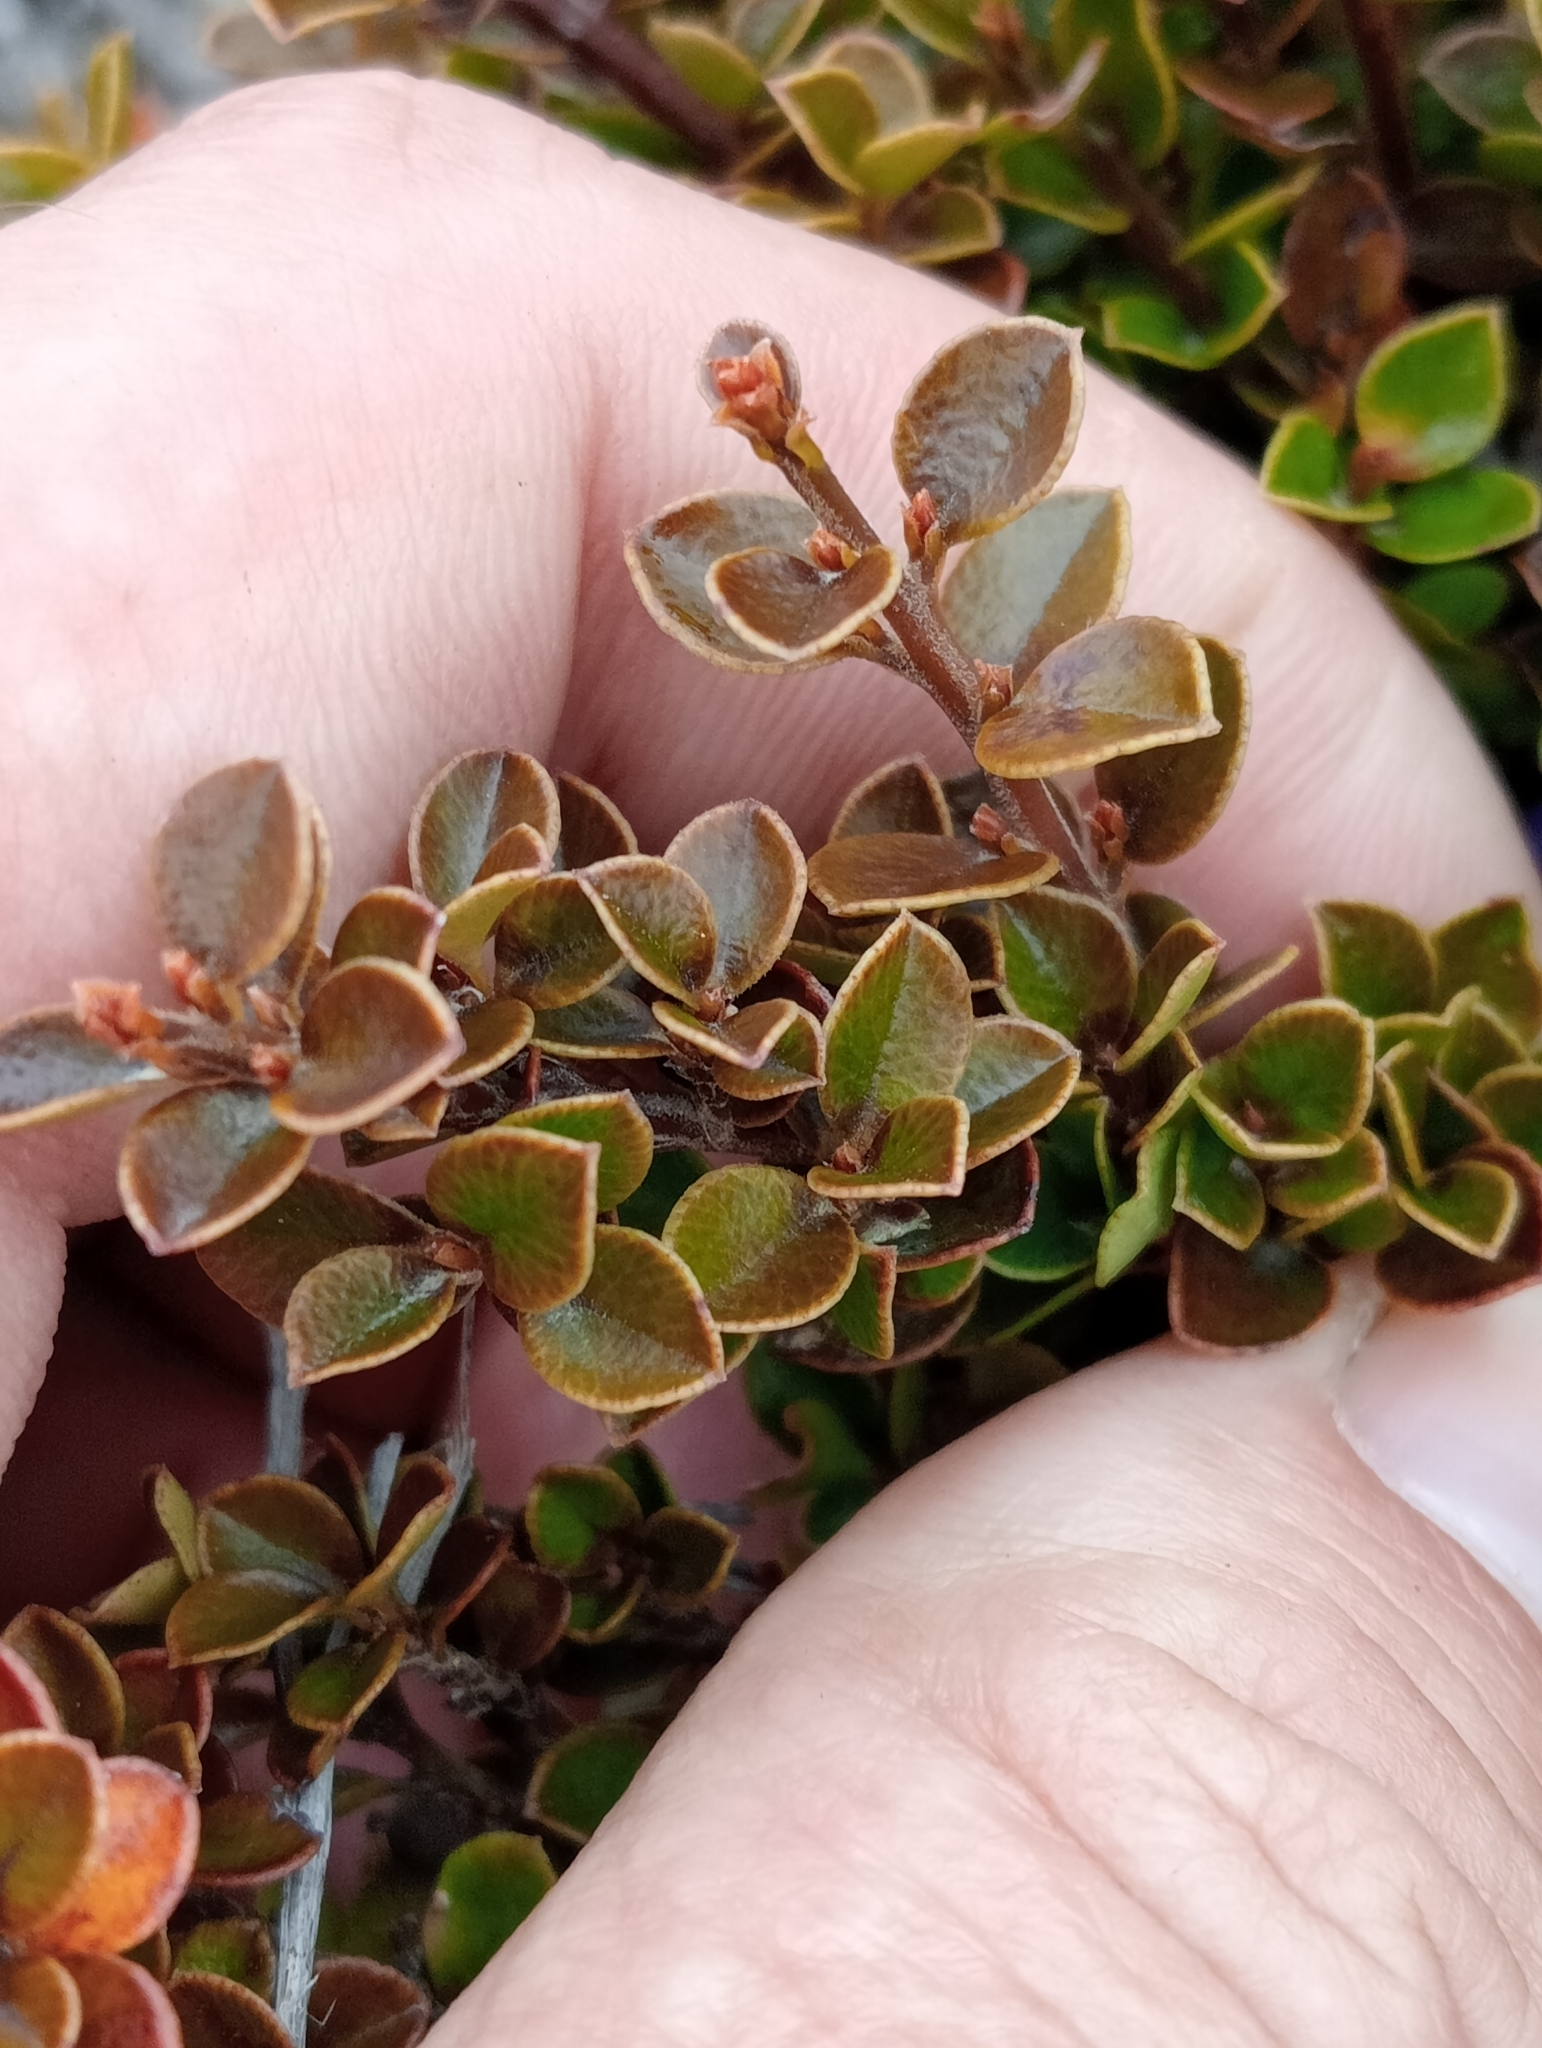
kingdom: Plantae
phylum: Tracheophyta
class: Magnoliopsida
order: Ericales
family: Primulaceae
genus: Myrsine
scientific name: Myrsine nummularia
